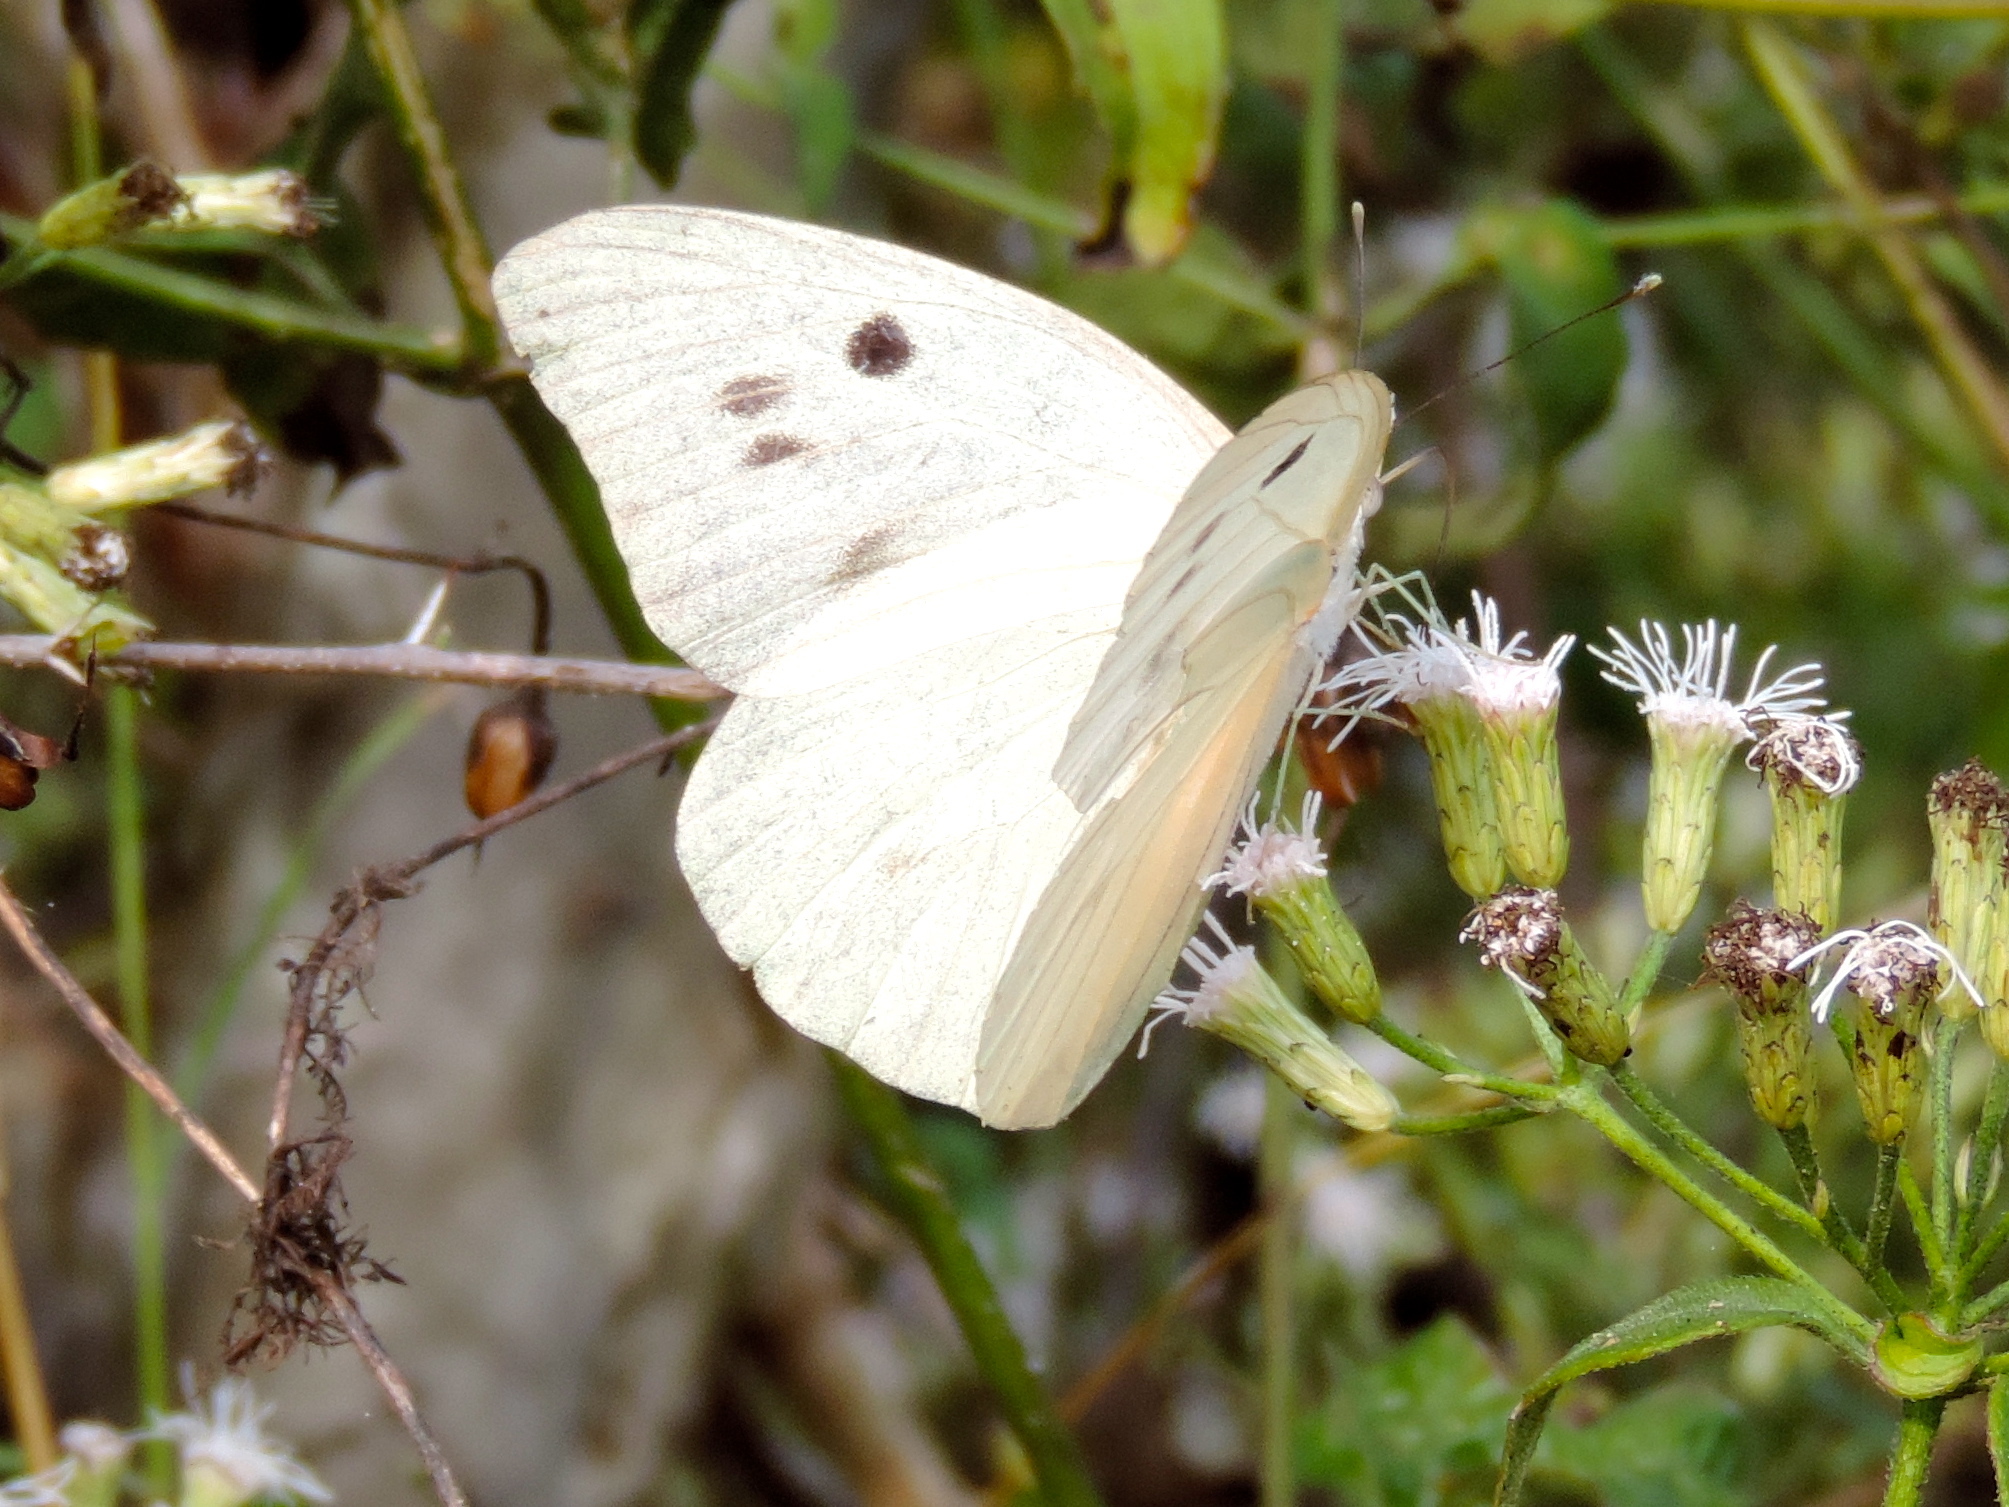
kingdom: Animalia
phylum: Arthropoda
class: Insecta
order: Lepidoptera
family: Pieridae
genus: Ganyra
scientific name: Ganyra josephina
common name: Giant white
